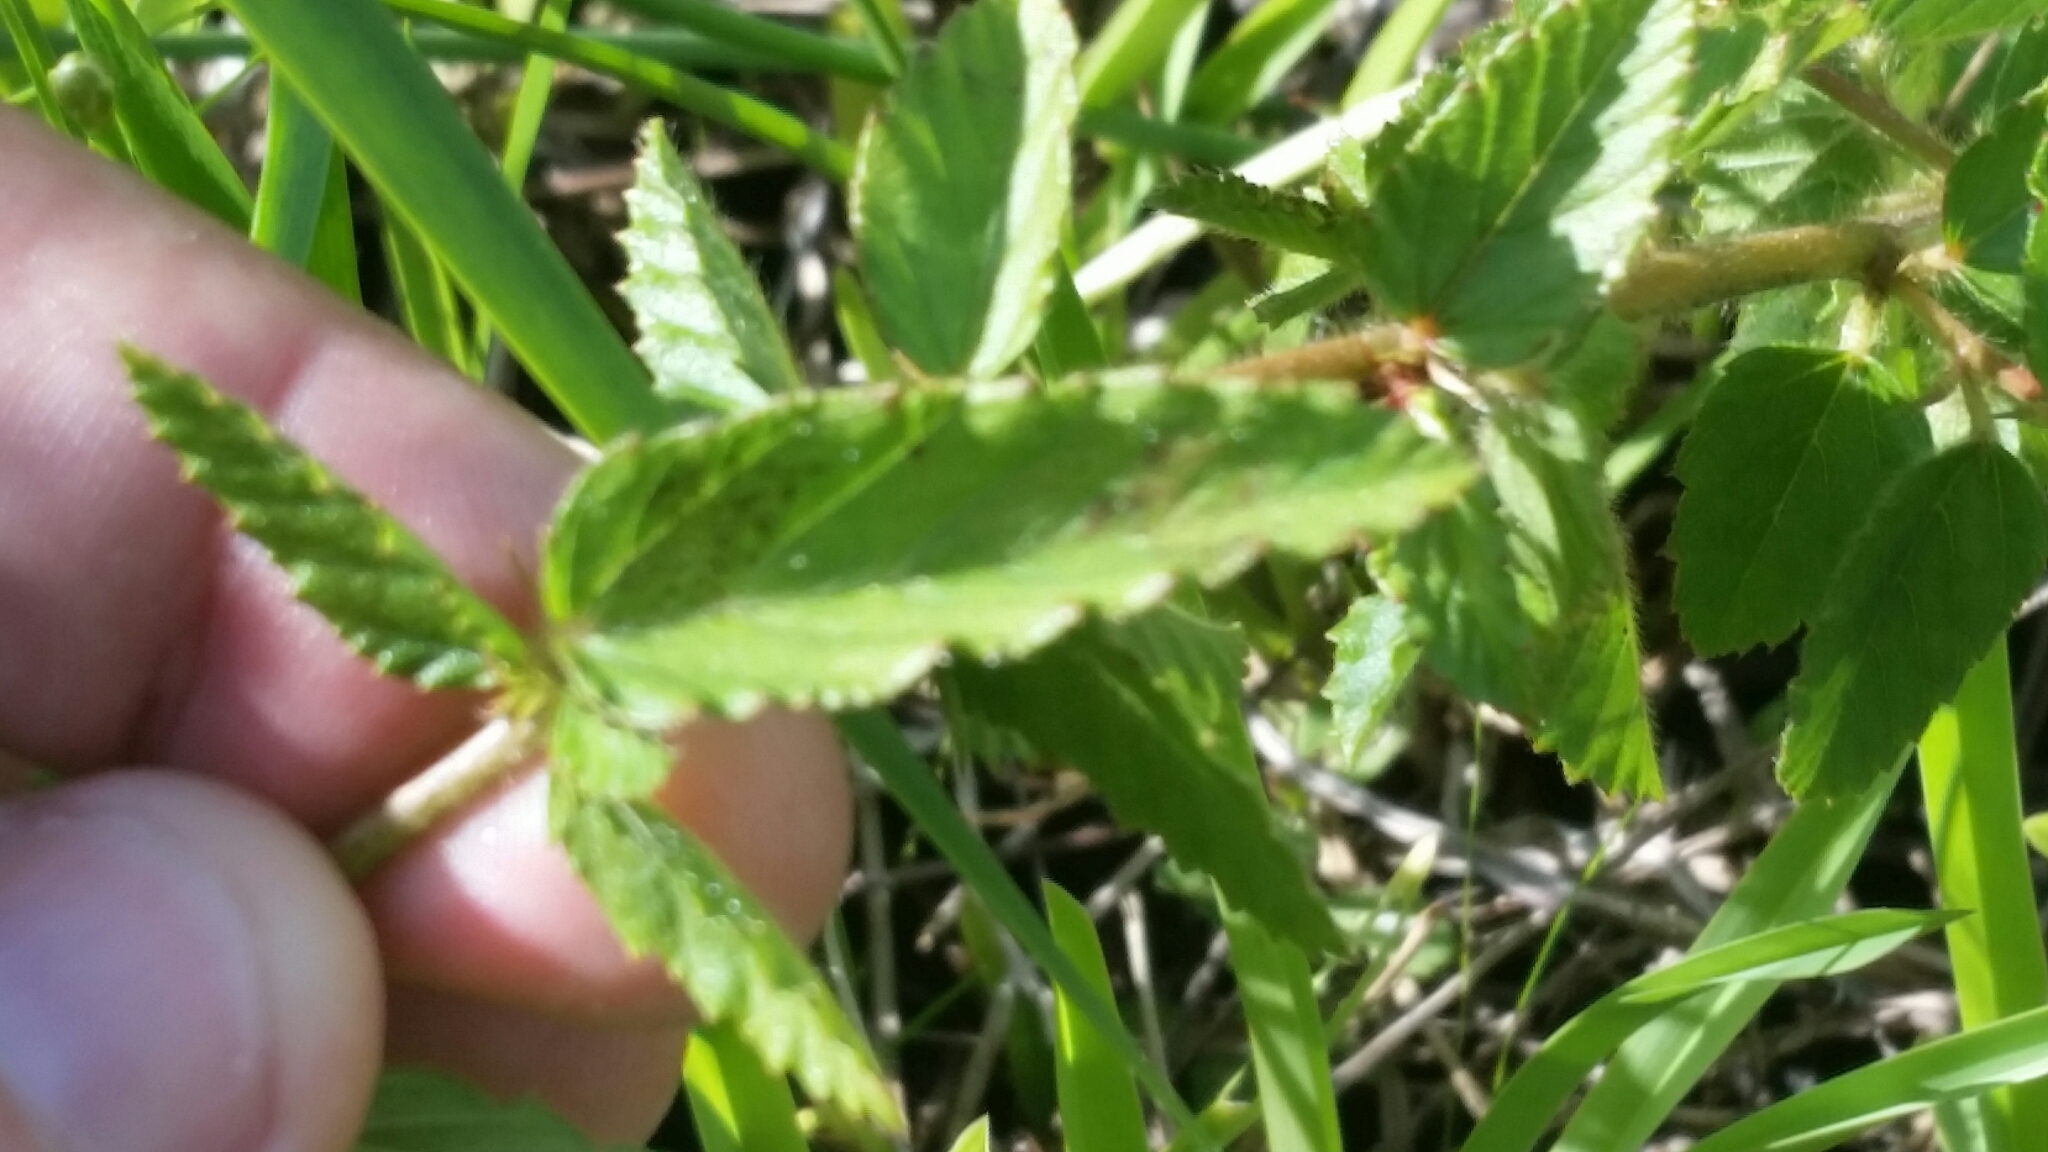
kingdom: Plantae
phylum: Tracheophyta
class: Magnoliopsida
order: Malvales
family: Malvaceae
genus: Melochia
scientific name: Melochia spicata
